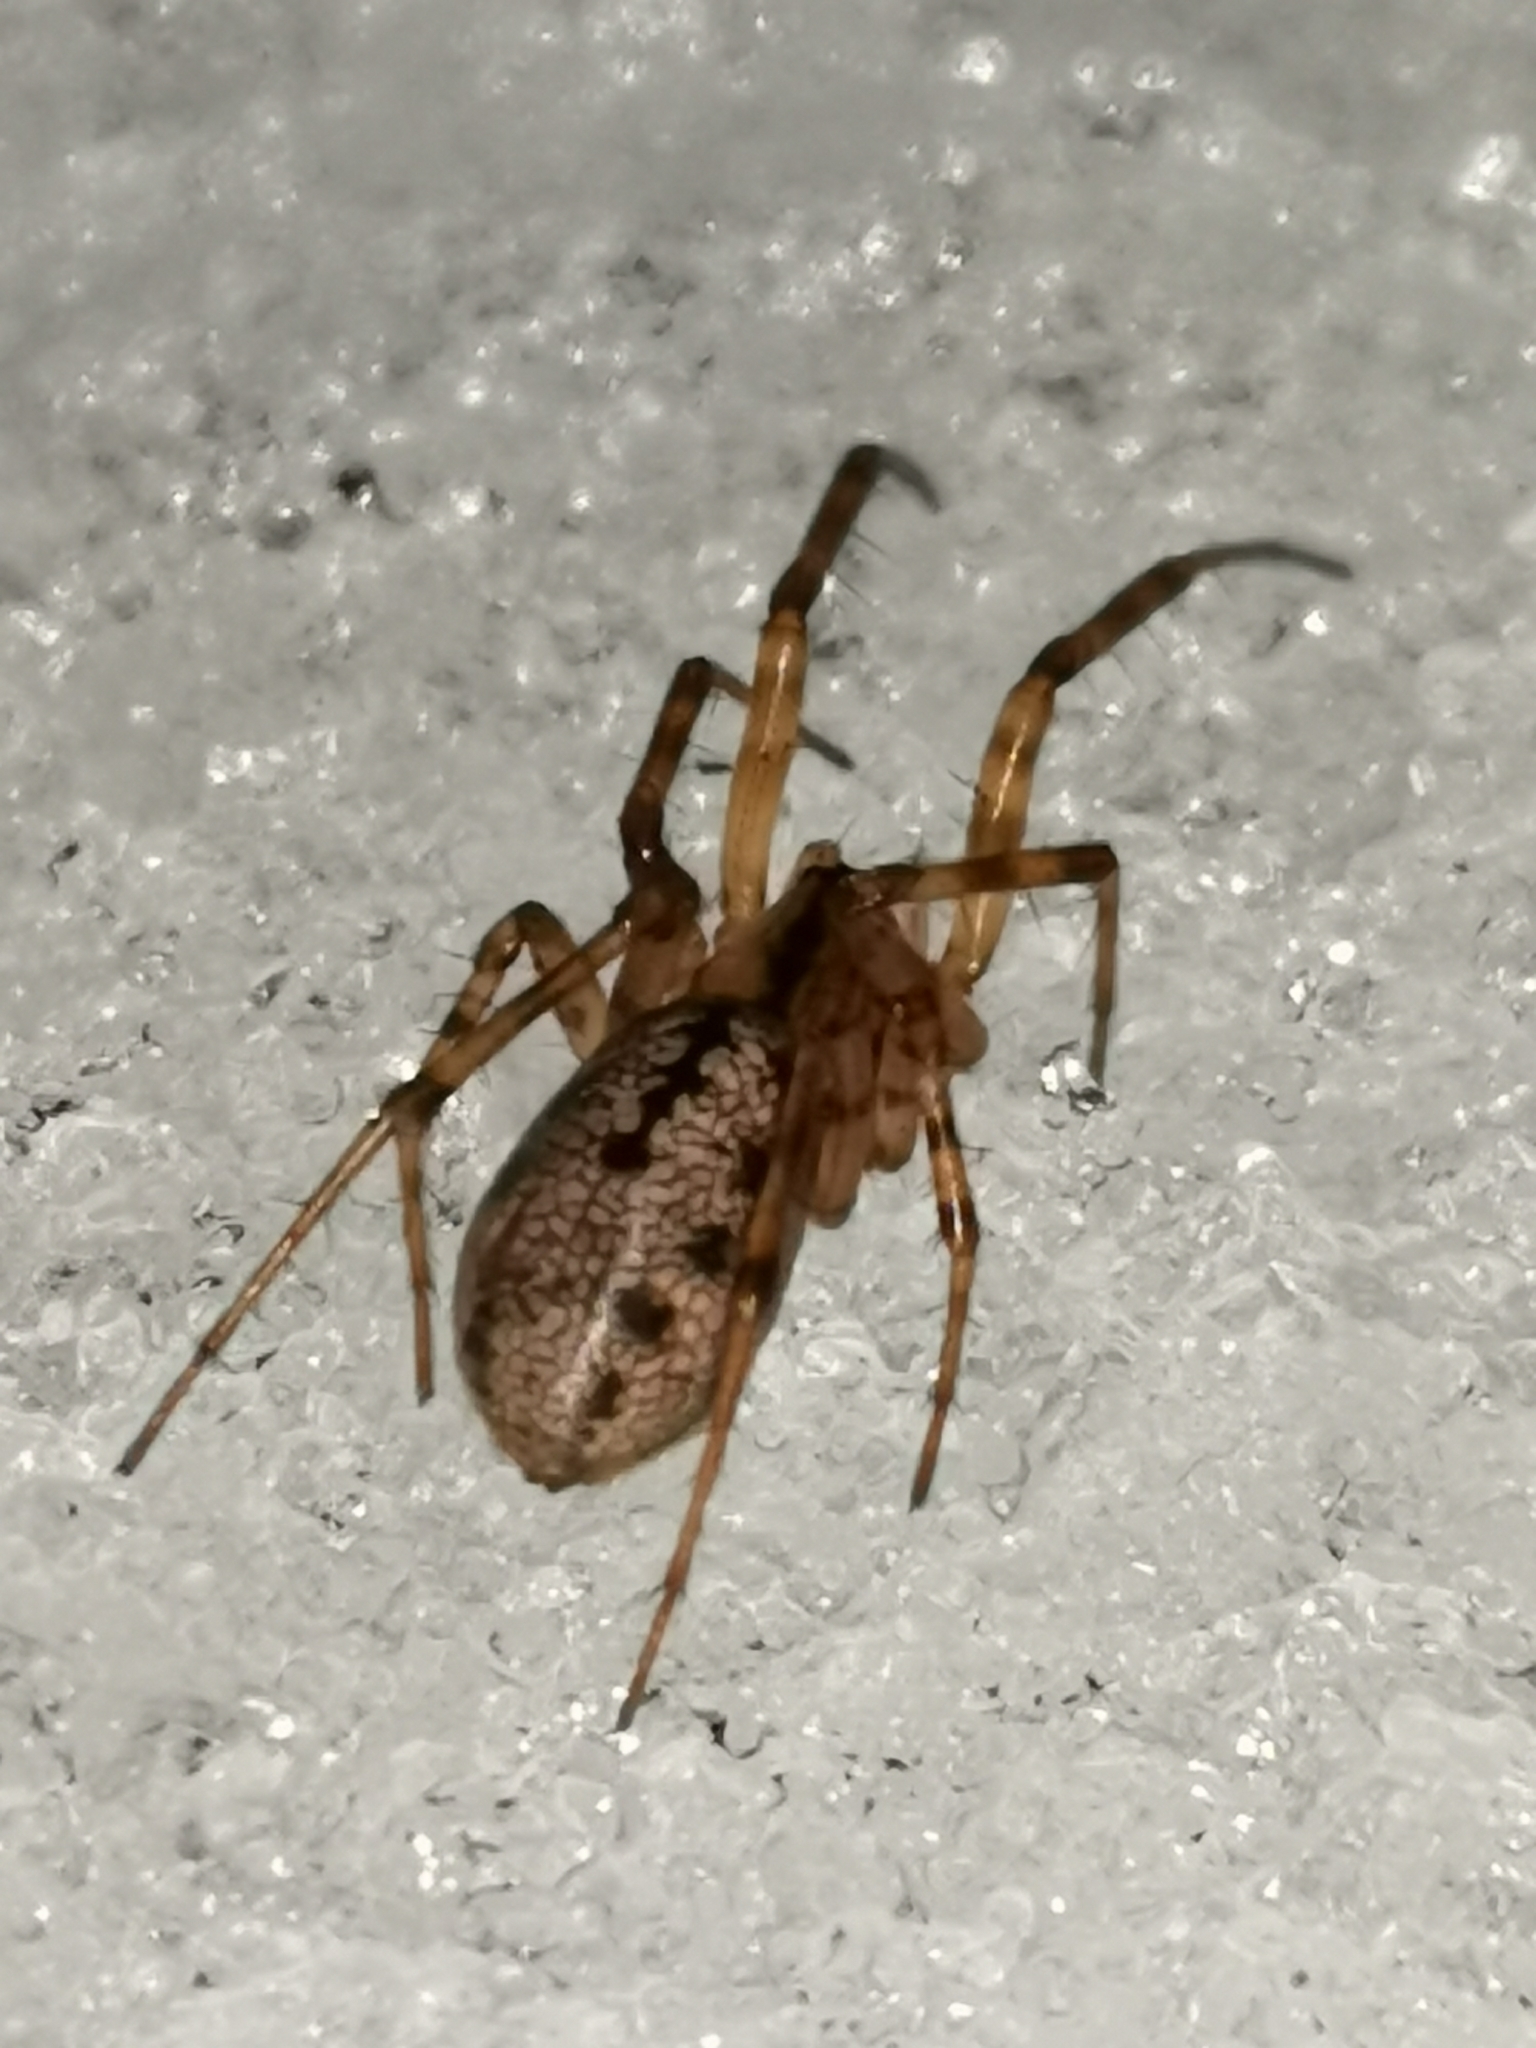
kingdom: Animalia
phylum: Arthropoda
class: Arachnida
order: Araneae
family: Linyphiidae
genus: Stemonyphantes
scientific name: Stemonyphantes lineatus
